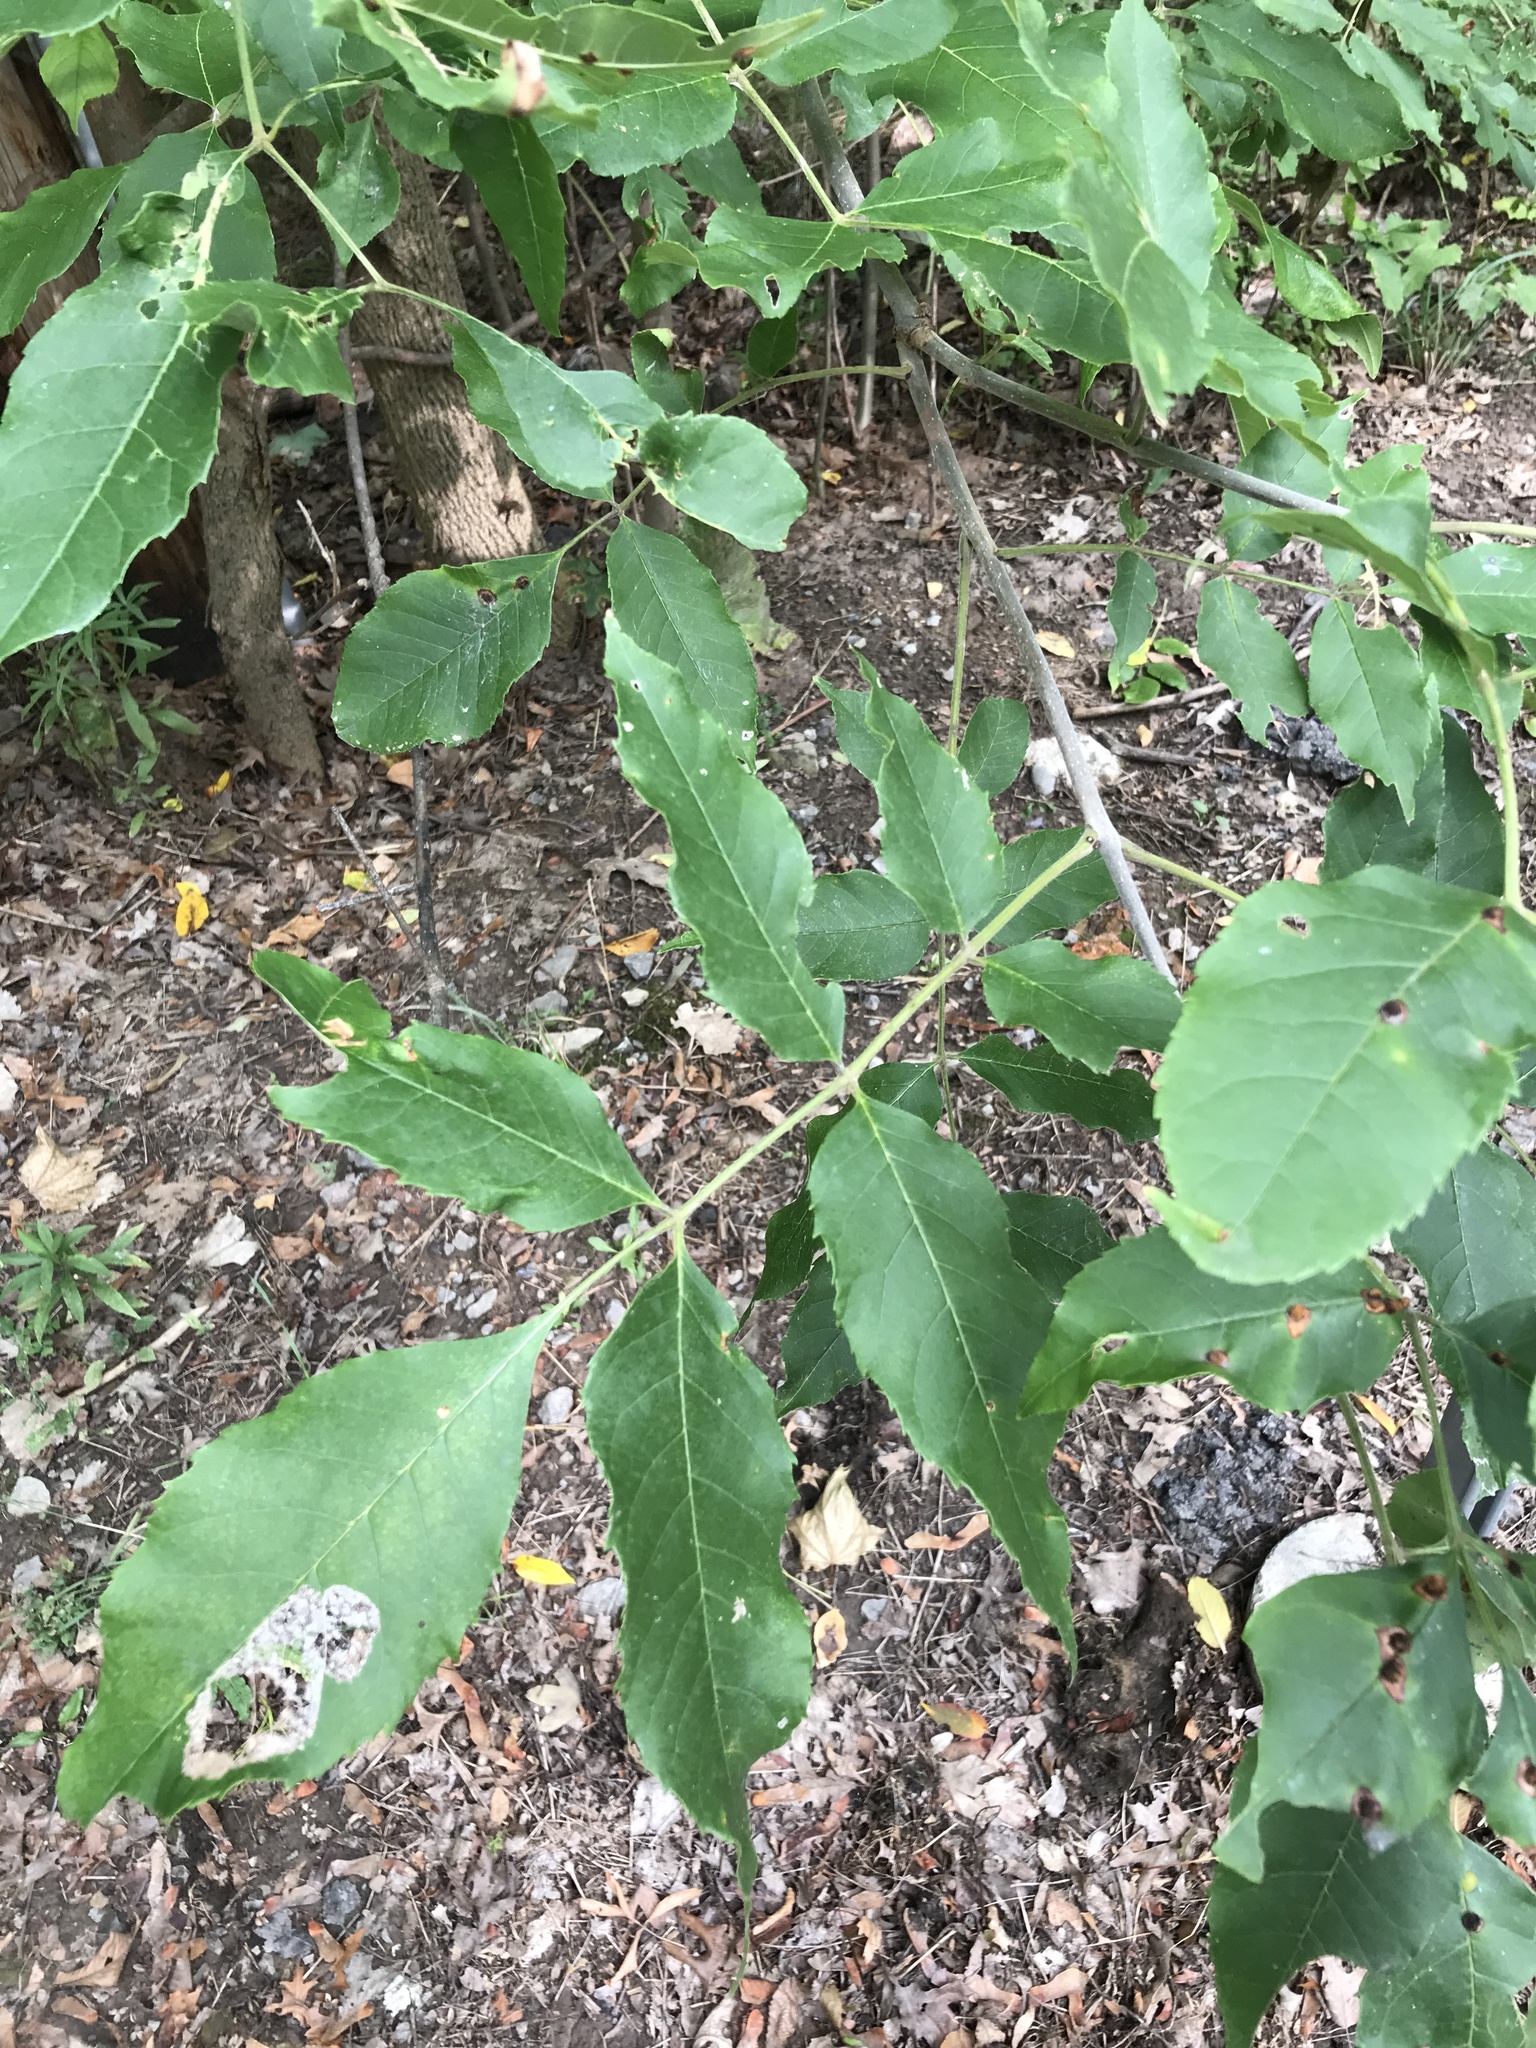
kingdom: Plantae
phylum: Tracheophyta
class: Magnoliopsida
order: Lamiales
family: Oleaceae
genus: Fraxinus
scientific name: Fraxinus nigra
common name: Black ash
